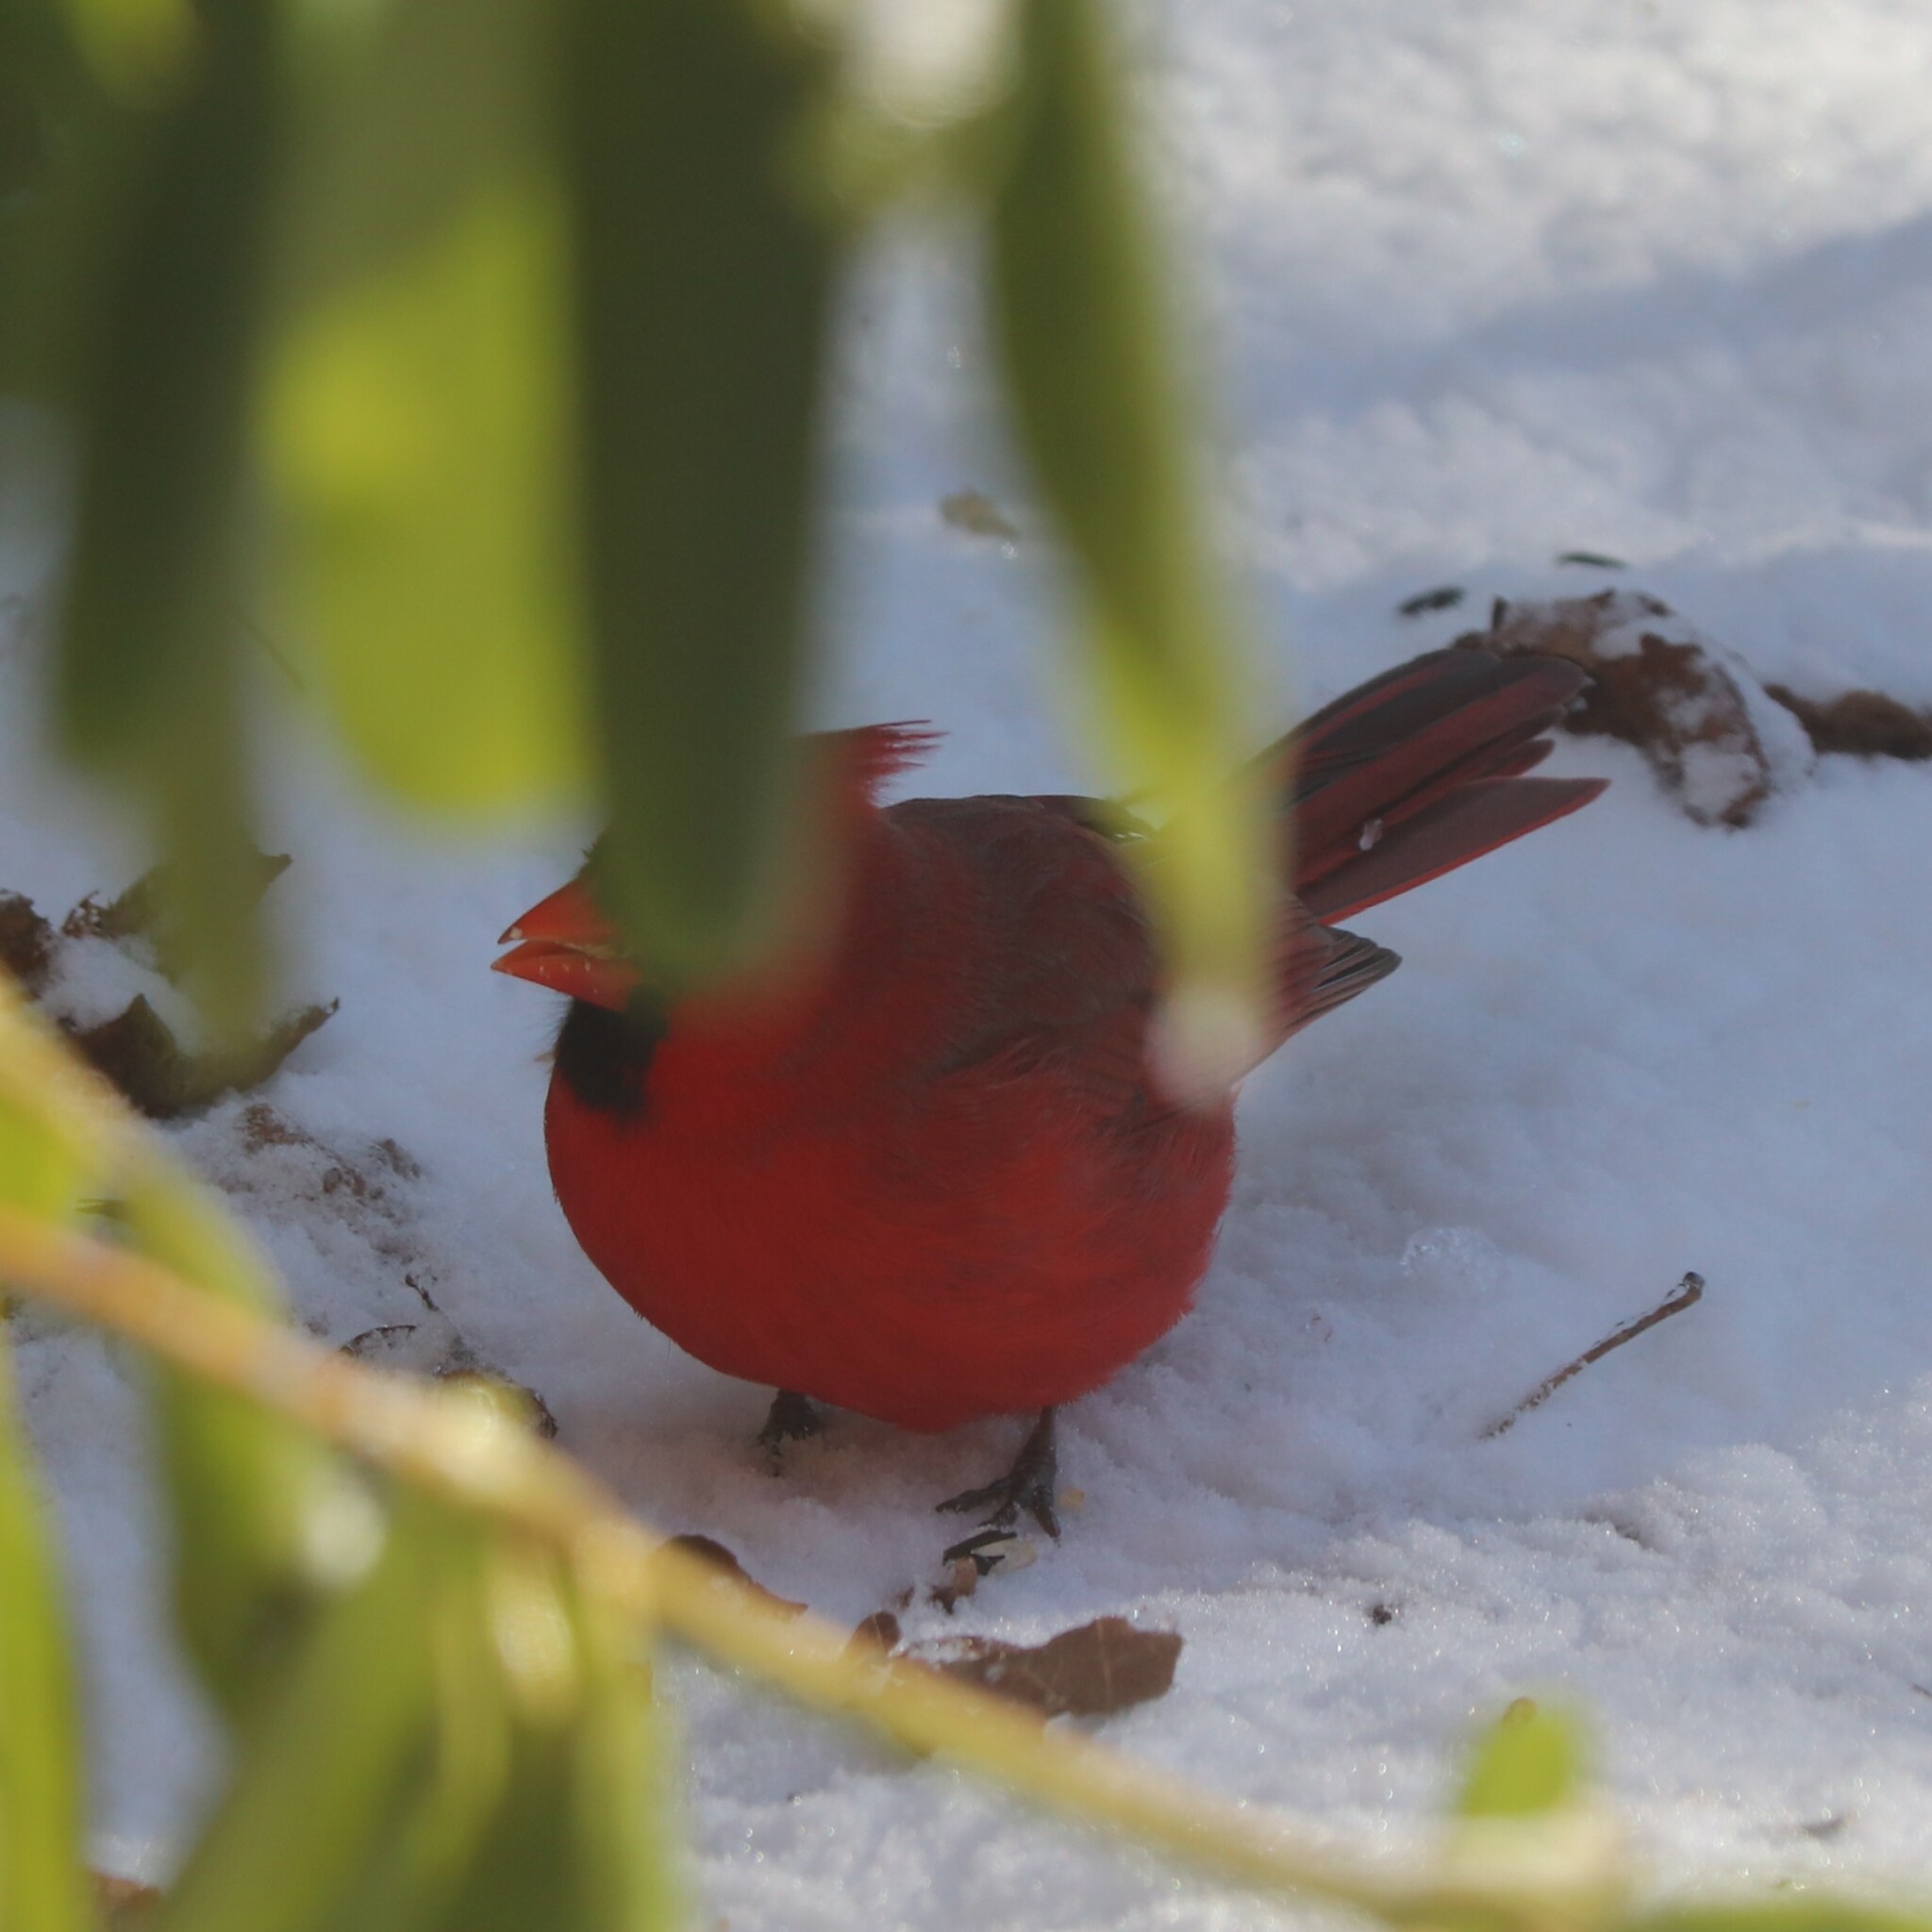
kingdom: Animalia
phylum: Chordata
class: Aves
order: Passeriformes
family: Cardinalidae
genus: Cardinalis
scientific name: Cardinalis cardinalis
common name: Northern cardinal
